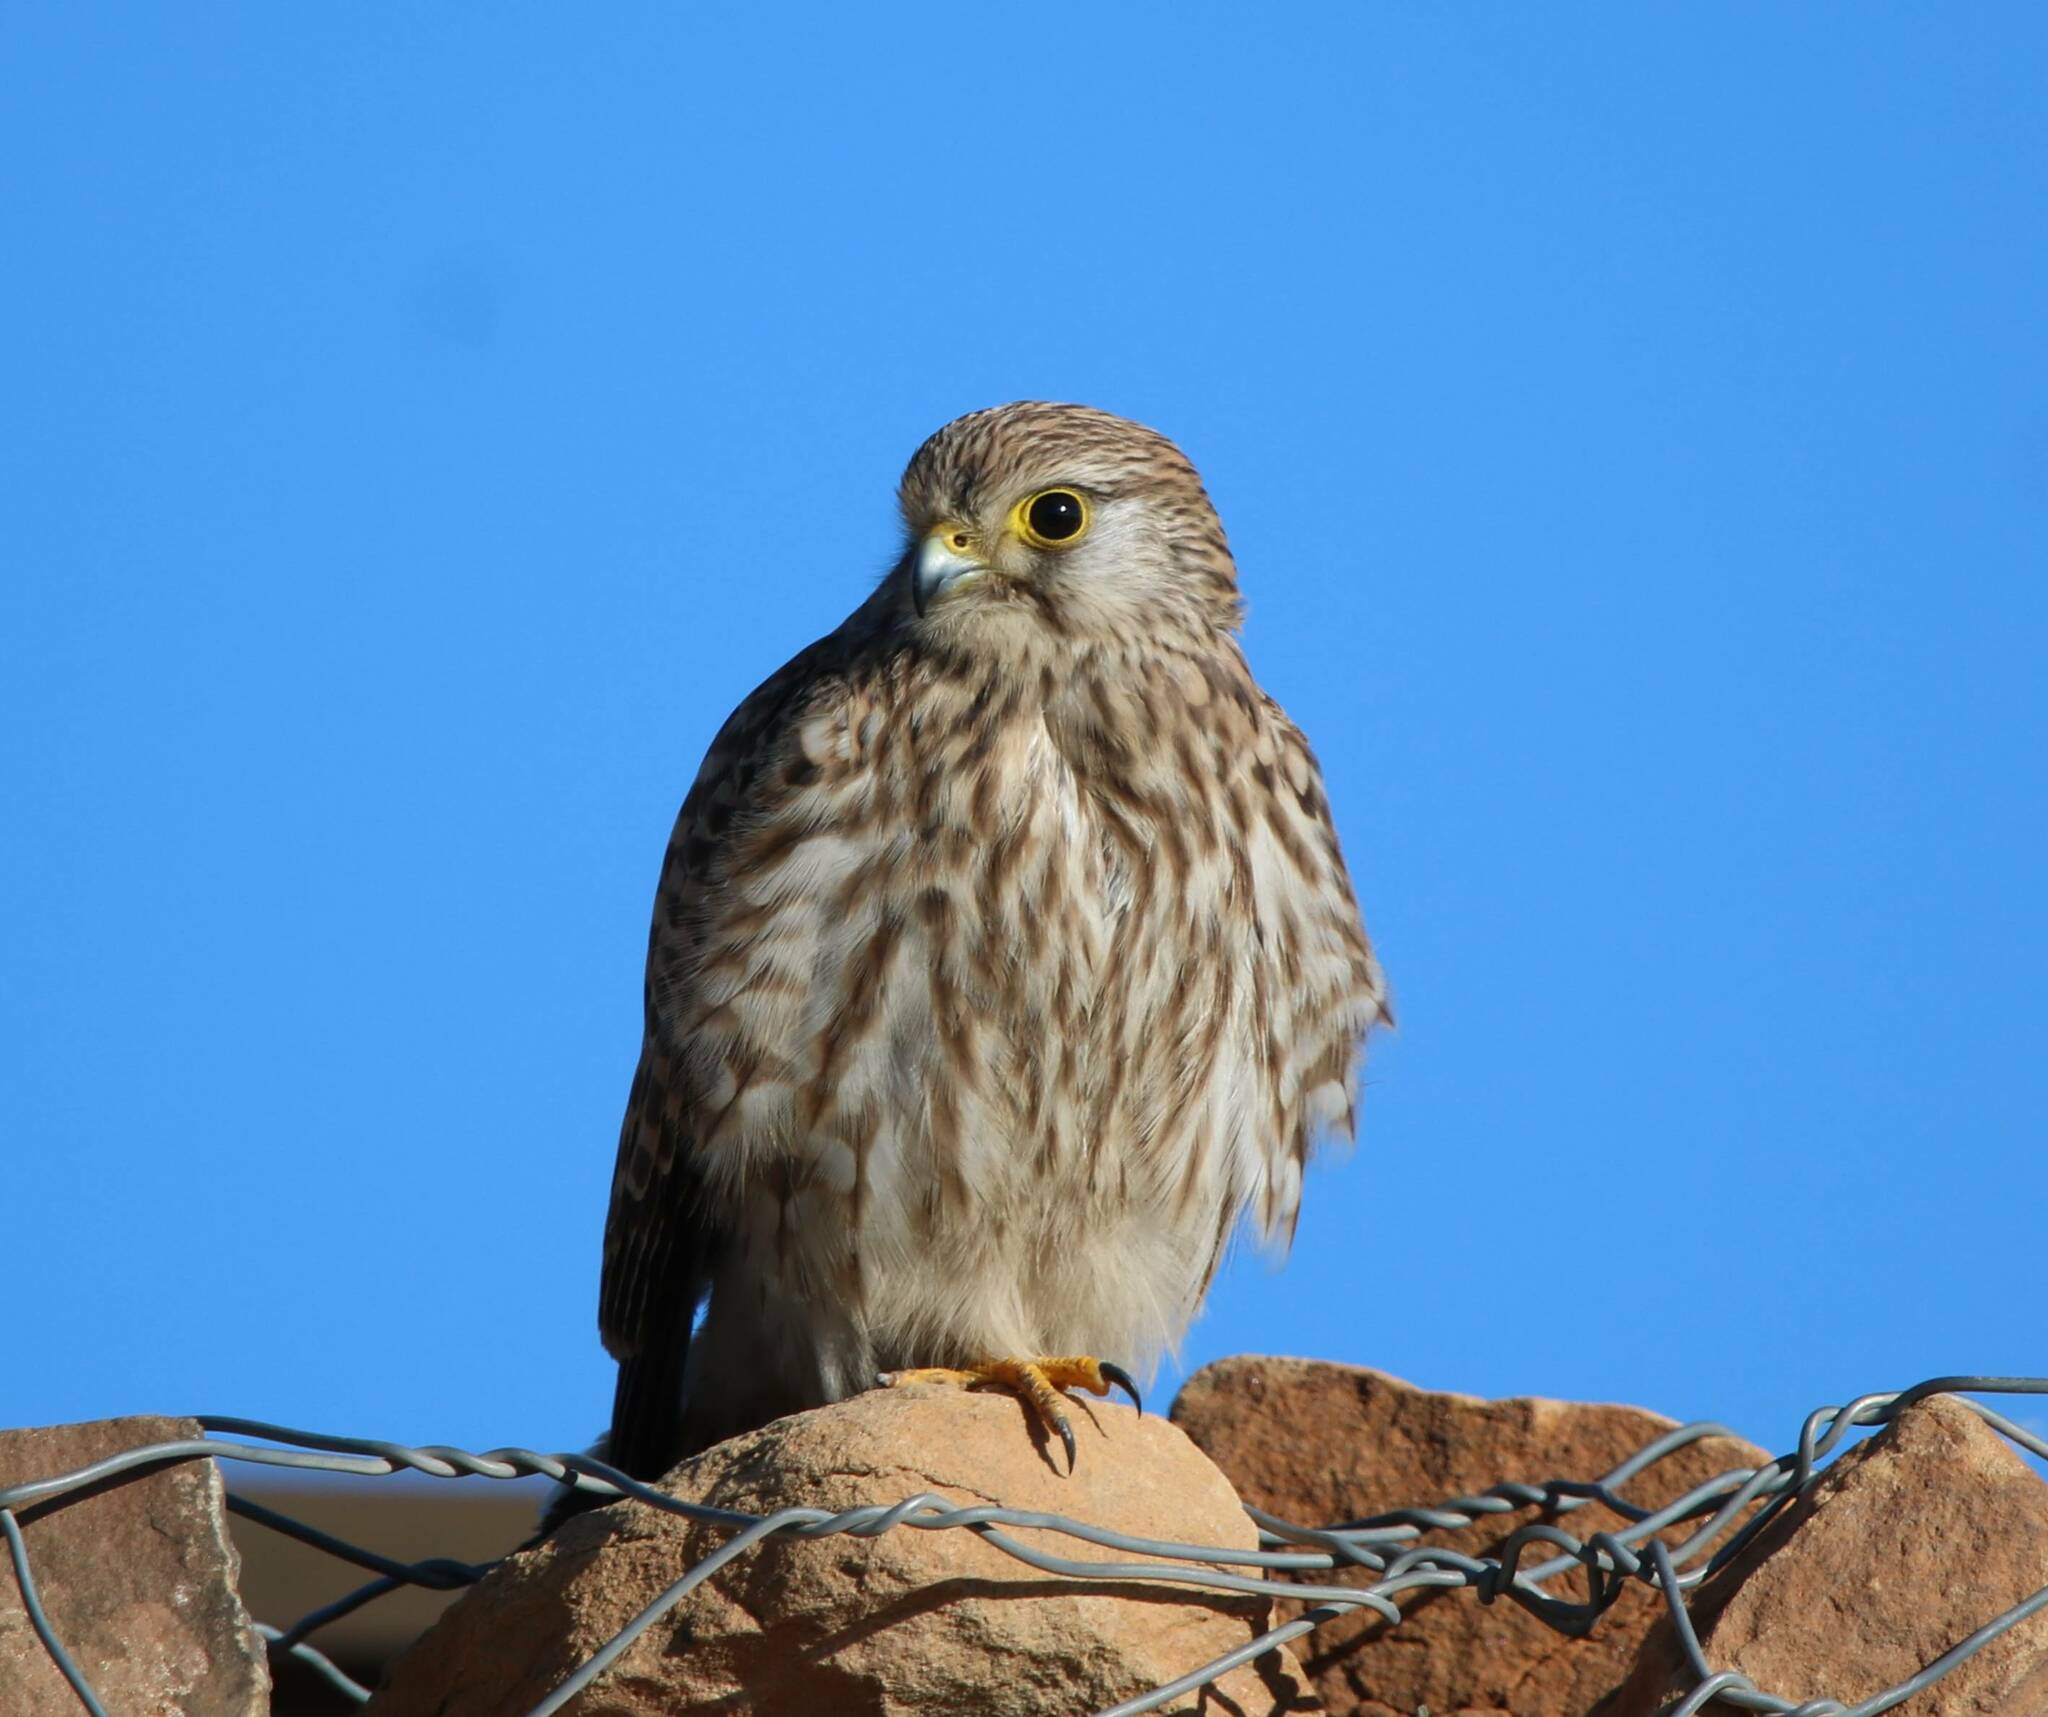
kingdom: Animalia
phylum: Chordata
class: Aves
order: Falconiformes
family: Falconidae
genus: Falco
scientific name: Falco tinnunculus
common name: Common kestrel
